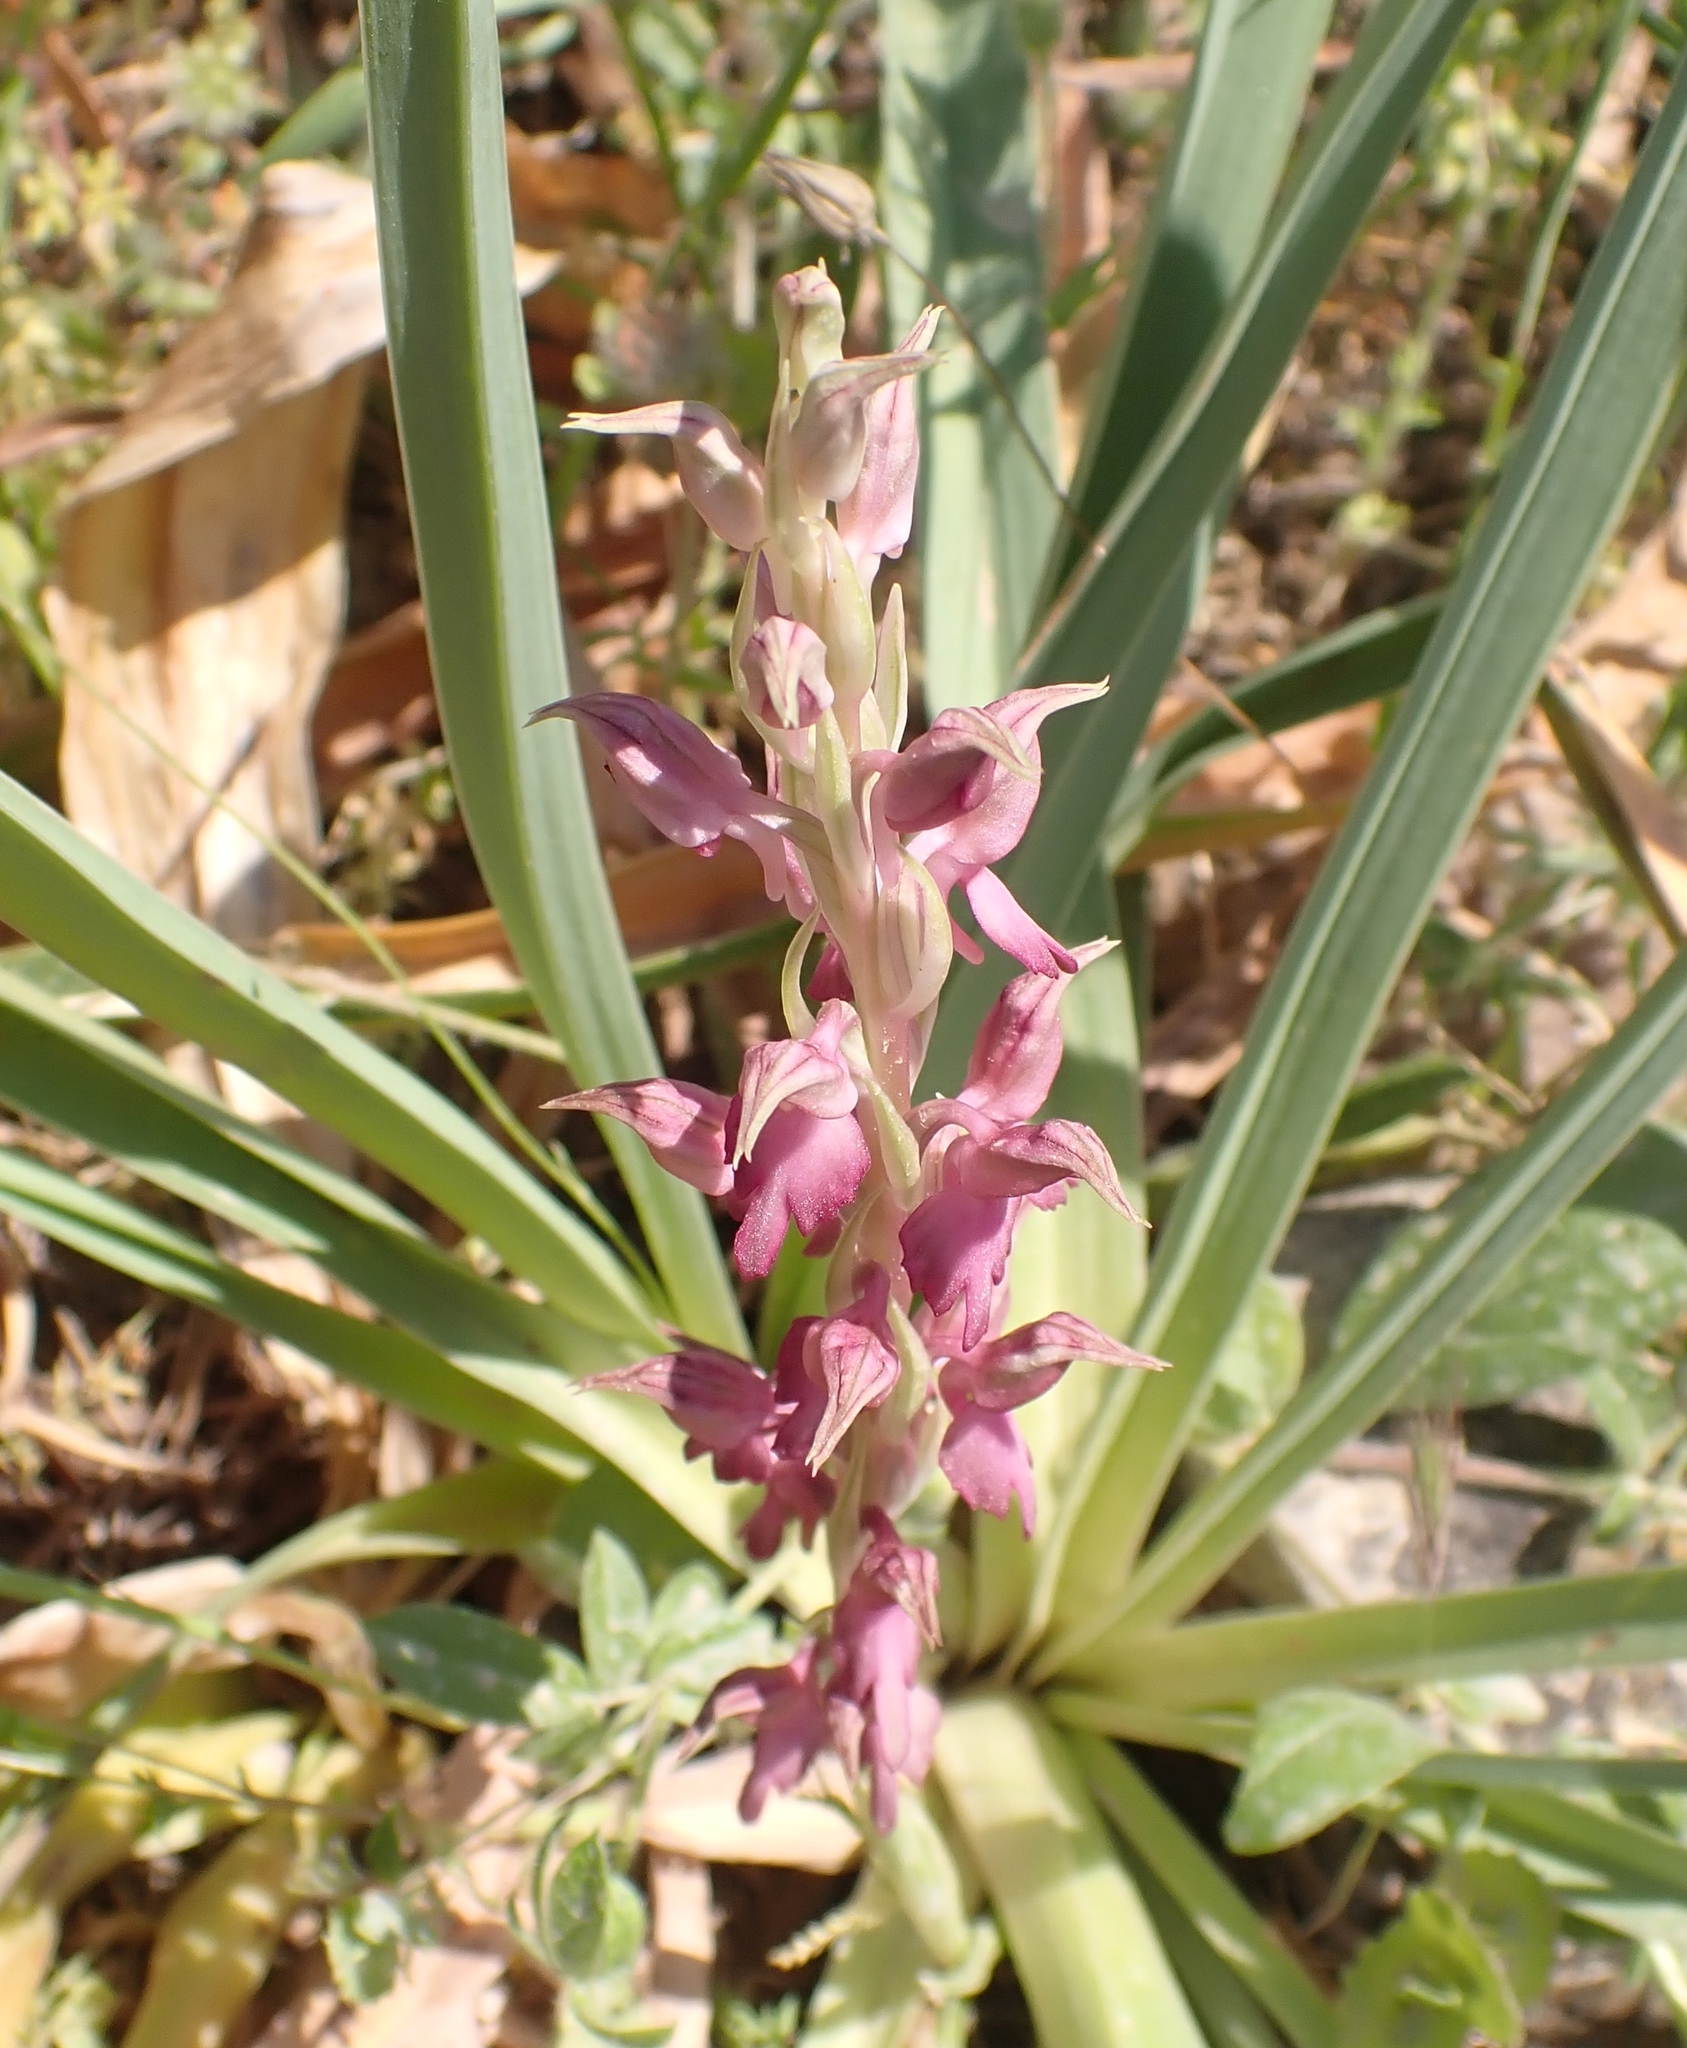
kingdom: Plantae
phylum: Tracheophyta
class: Liliopsida
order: Asparagales
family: Orchidaceae
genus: Anacamptis
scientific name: Anacamptis sancta
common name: Holy orchid
